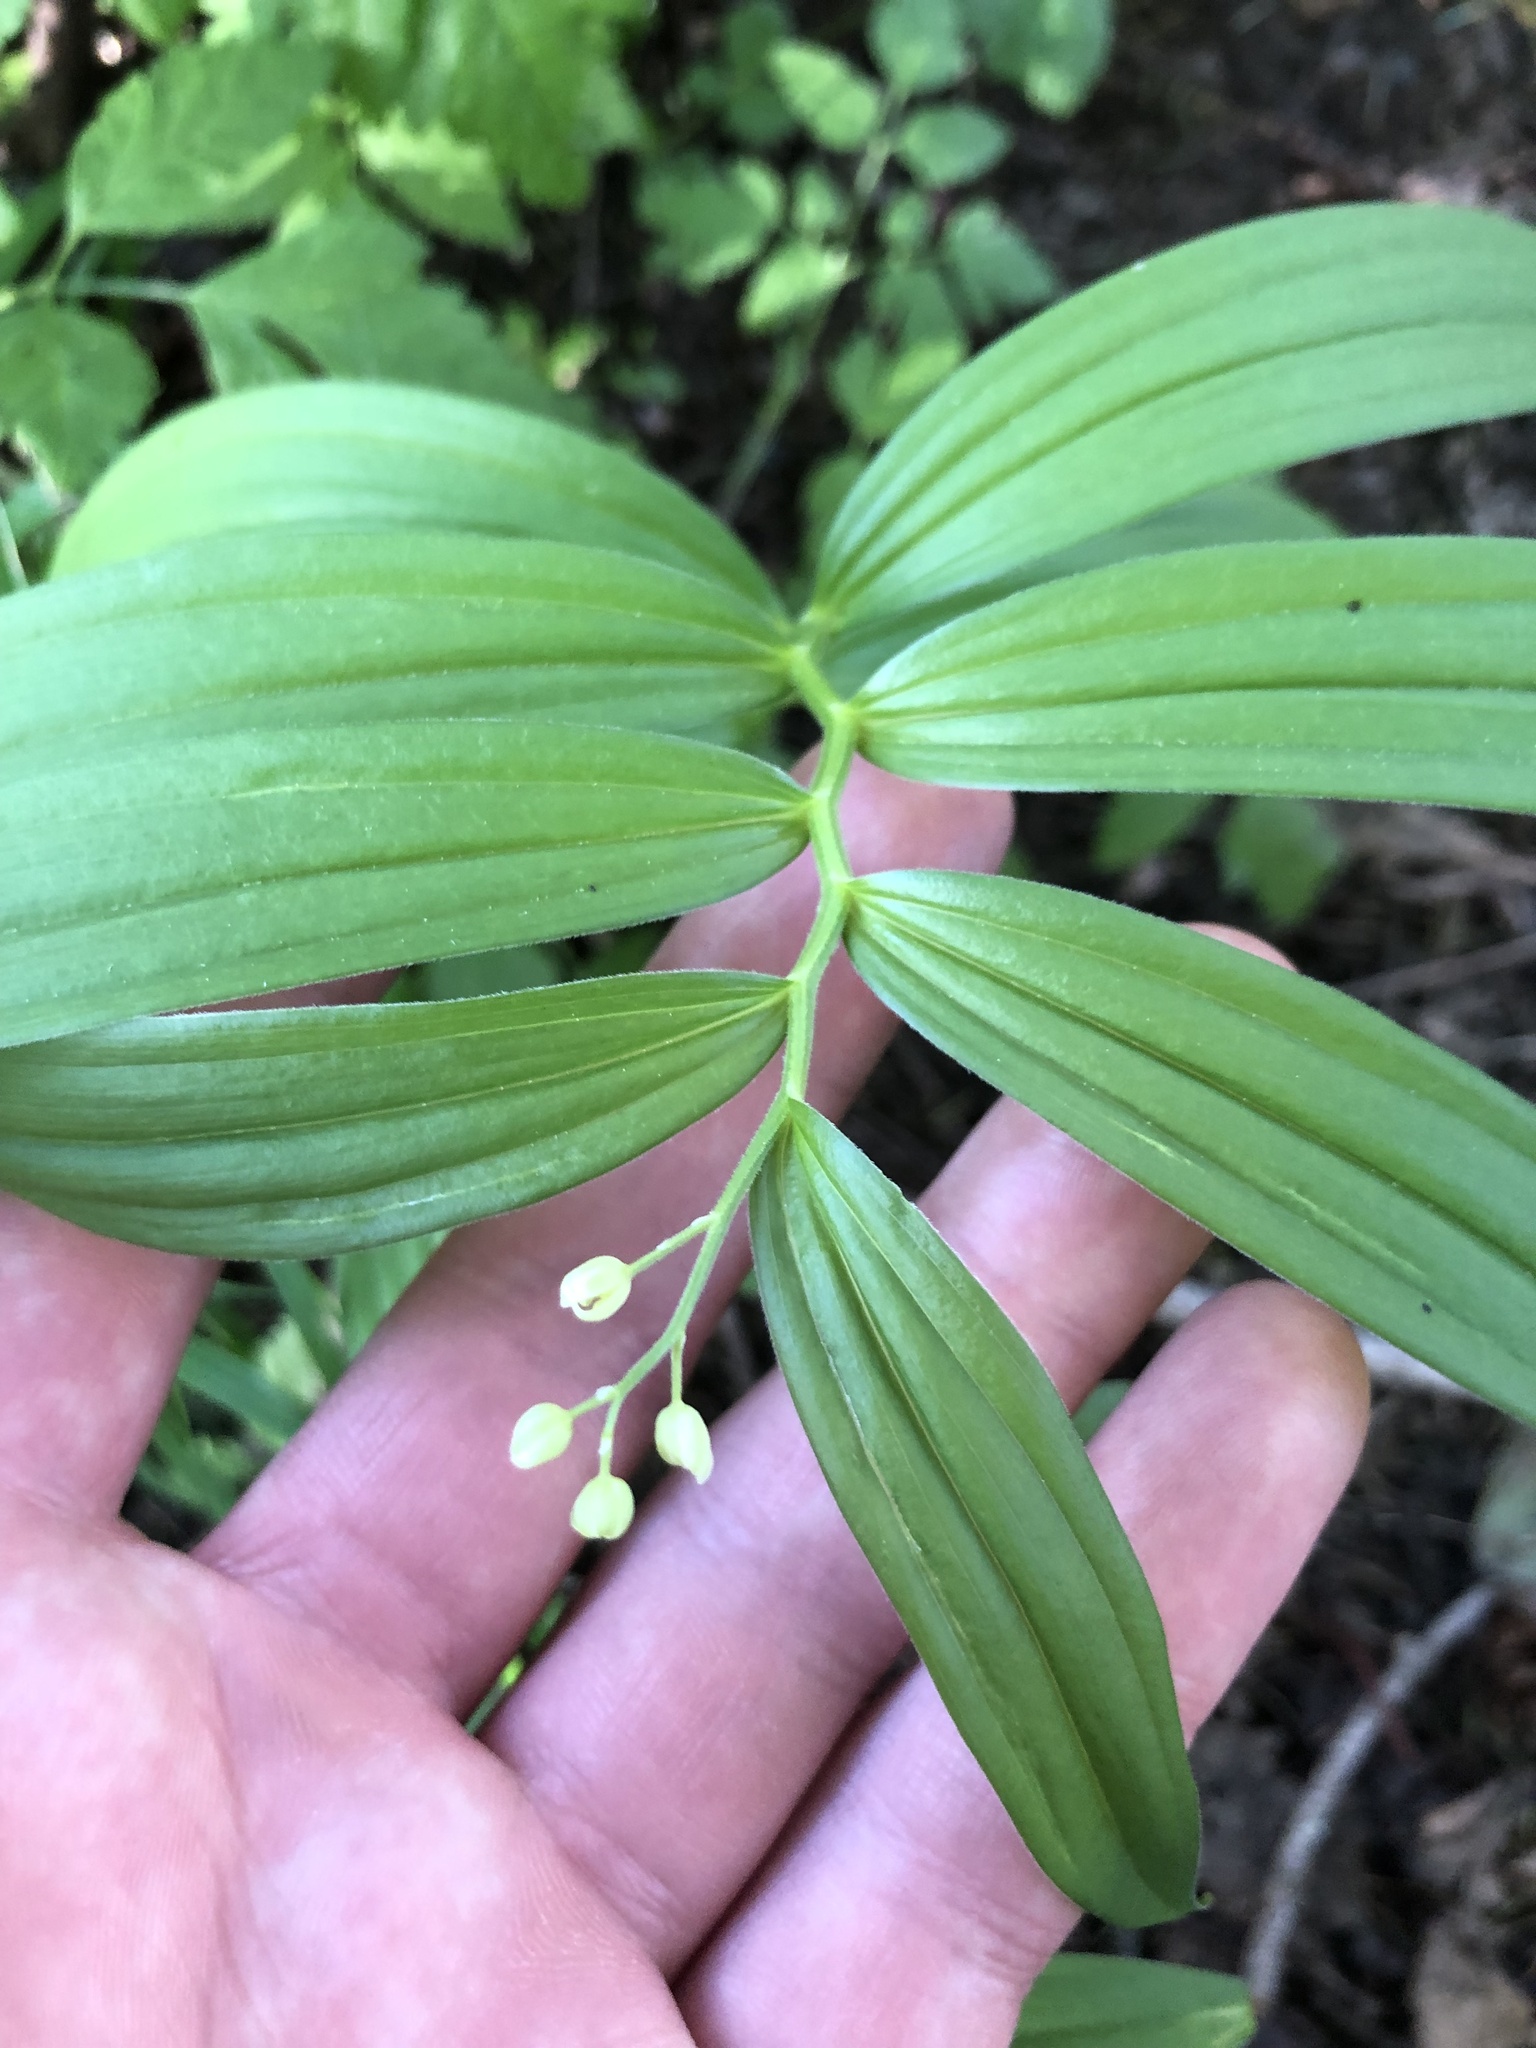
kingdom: Plantae
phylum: Tracheophyta
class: Liliopsida
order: Asparagales
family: Asparagaceae
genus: Maianthemum
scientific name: Maianthemum stellatum
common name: Little false solomon's seal
